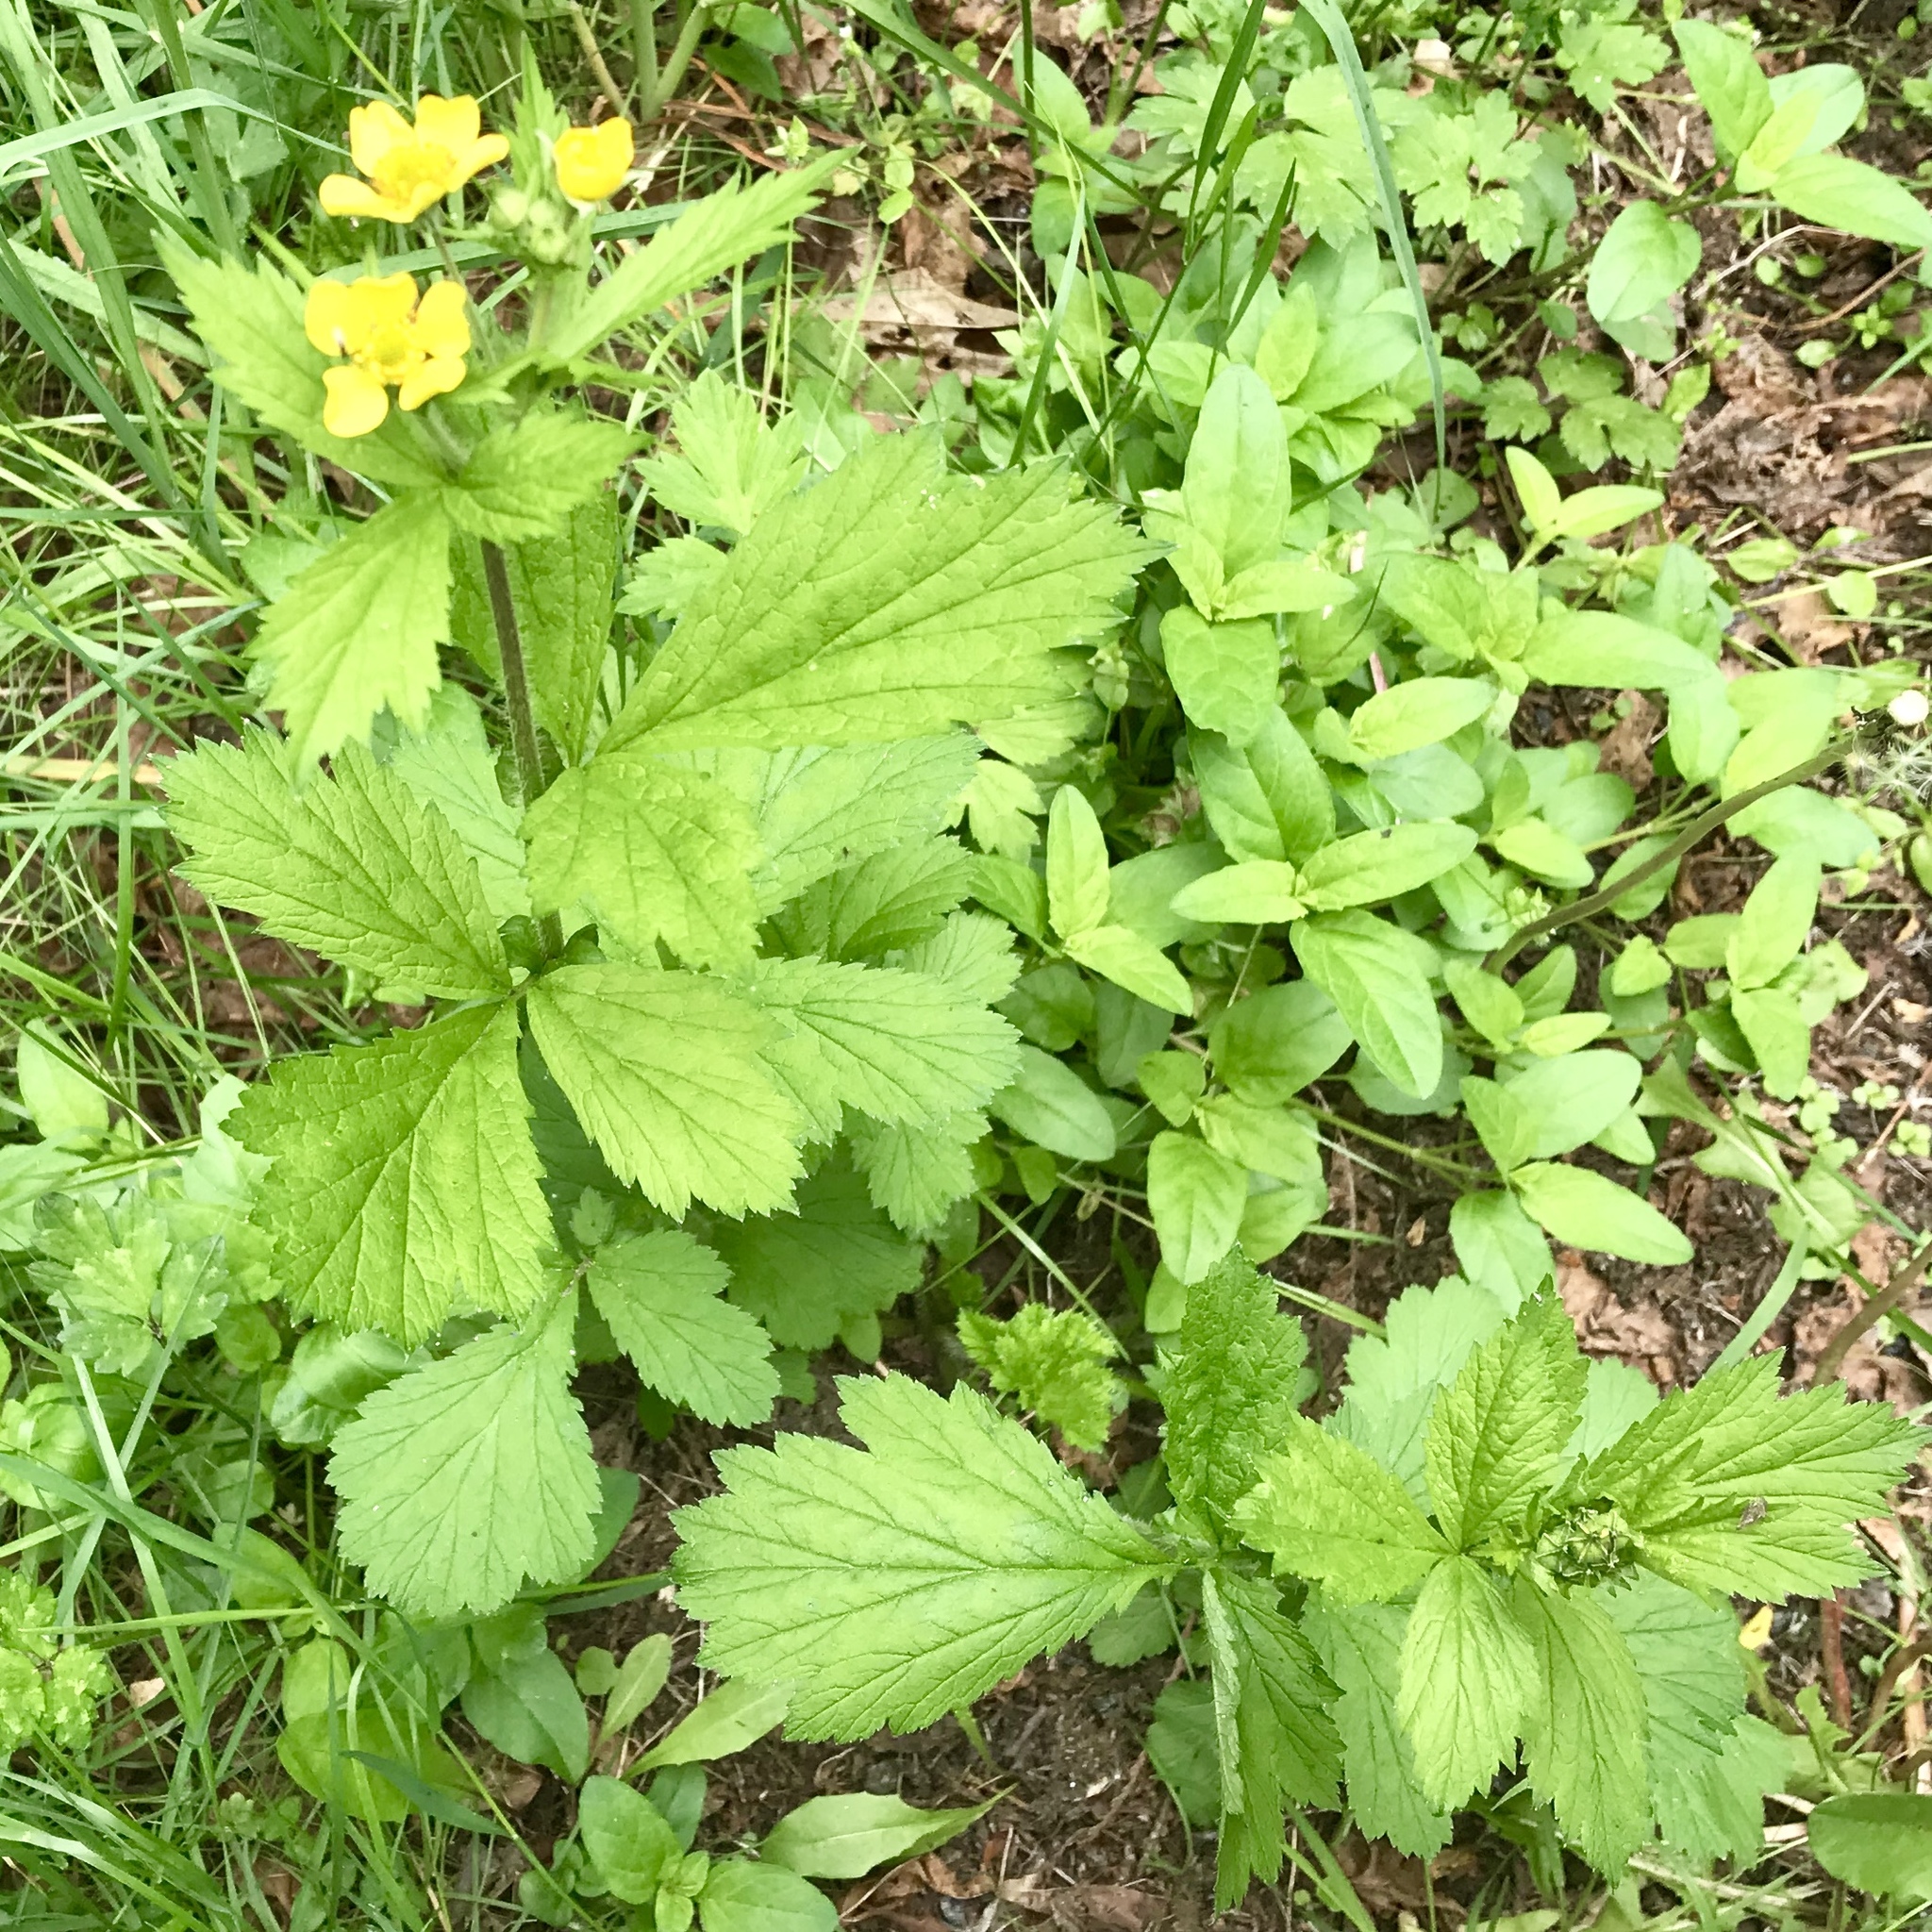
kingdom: Plantae
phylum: Tracheophyta
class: Magnoliopsida
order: Rosales
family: Rosaceae
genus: Geum
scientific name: Geum macrophyllum
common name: Large-leaved avens
